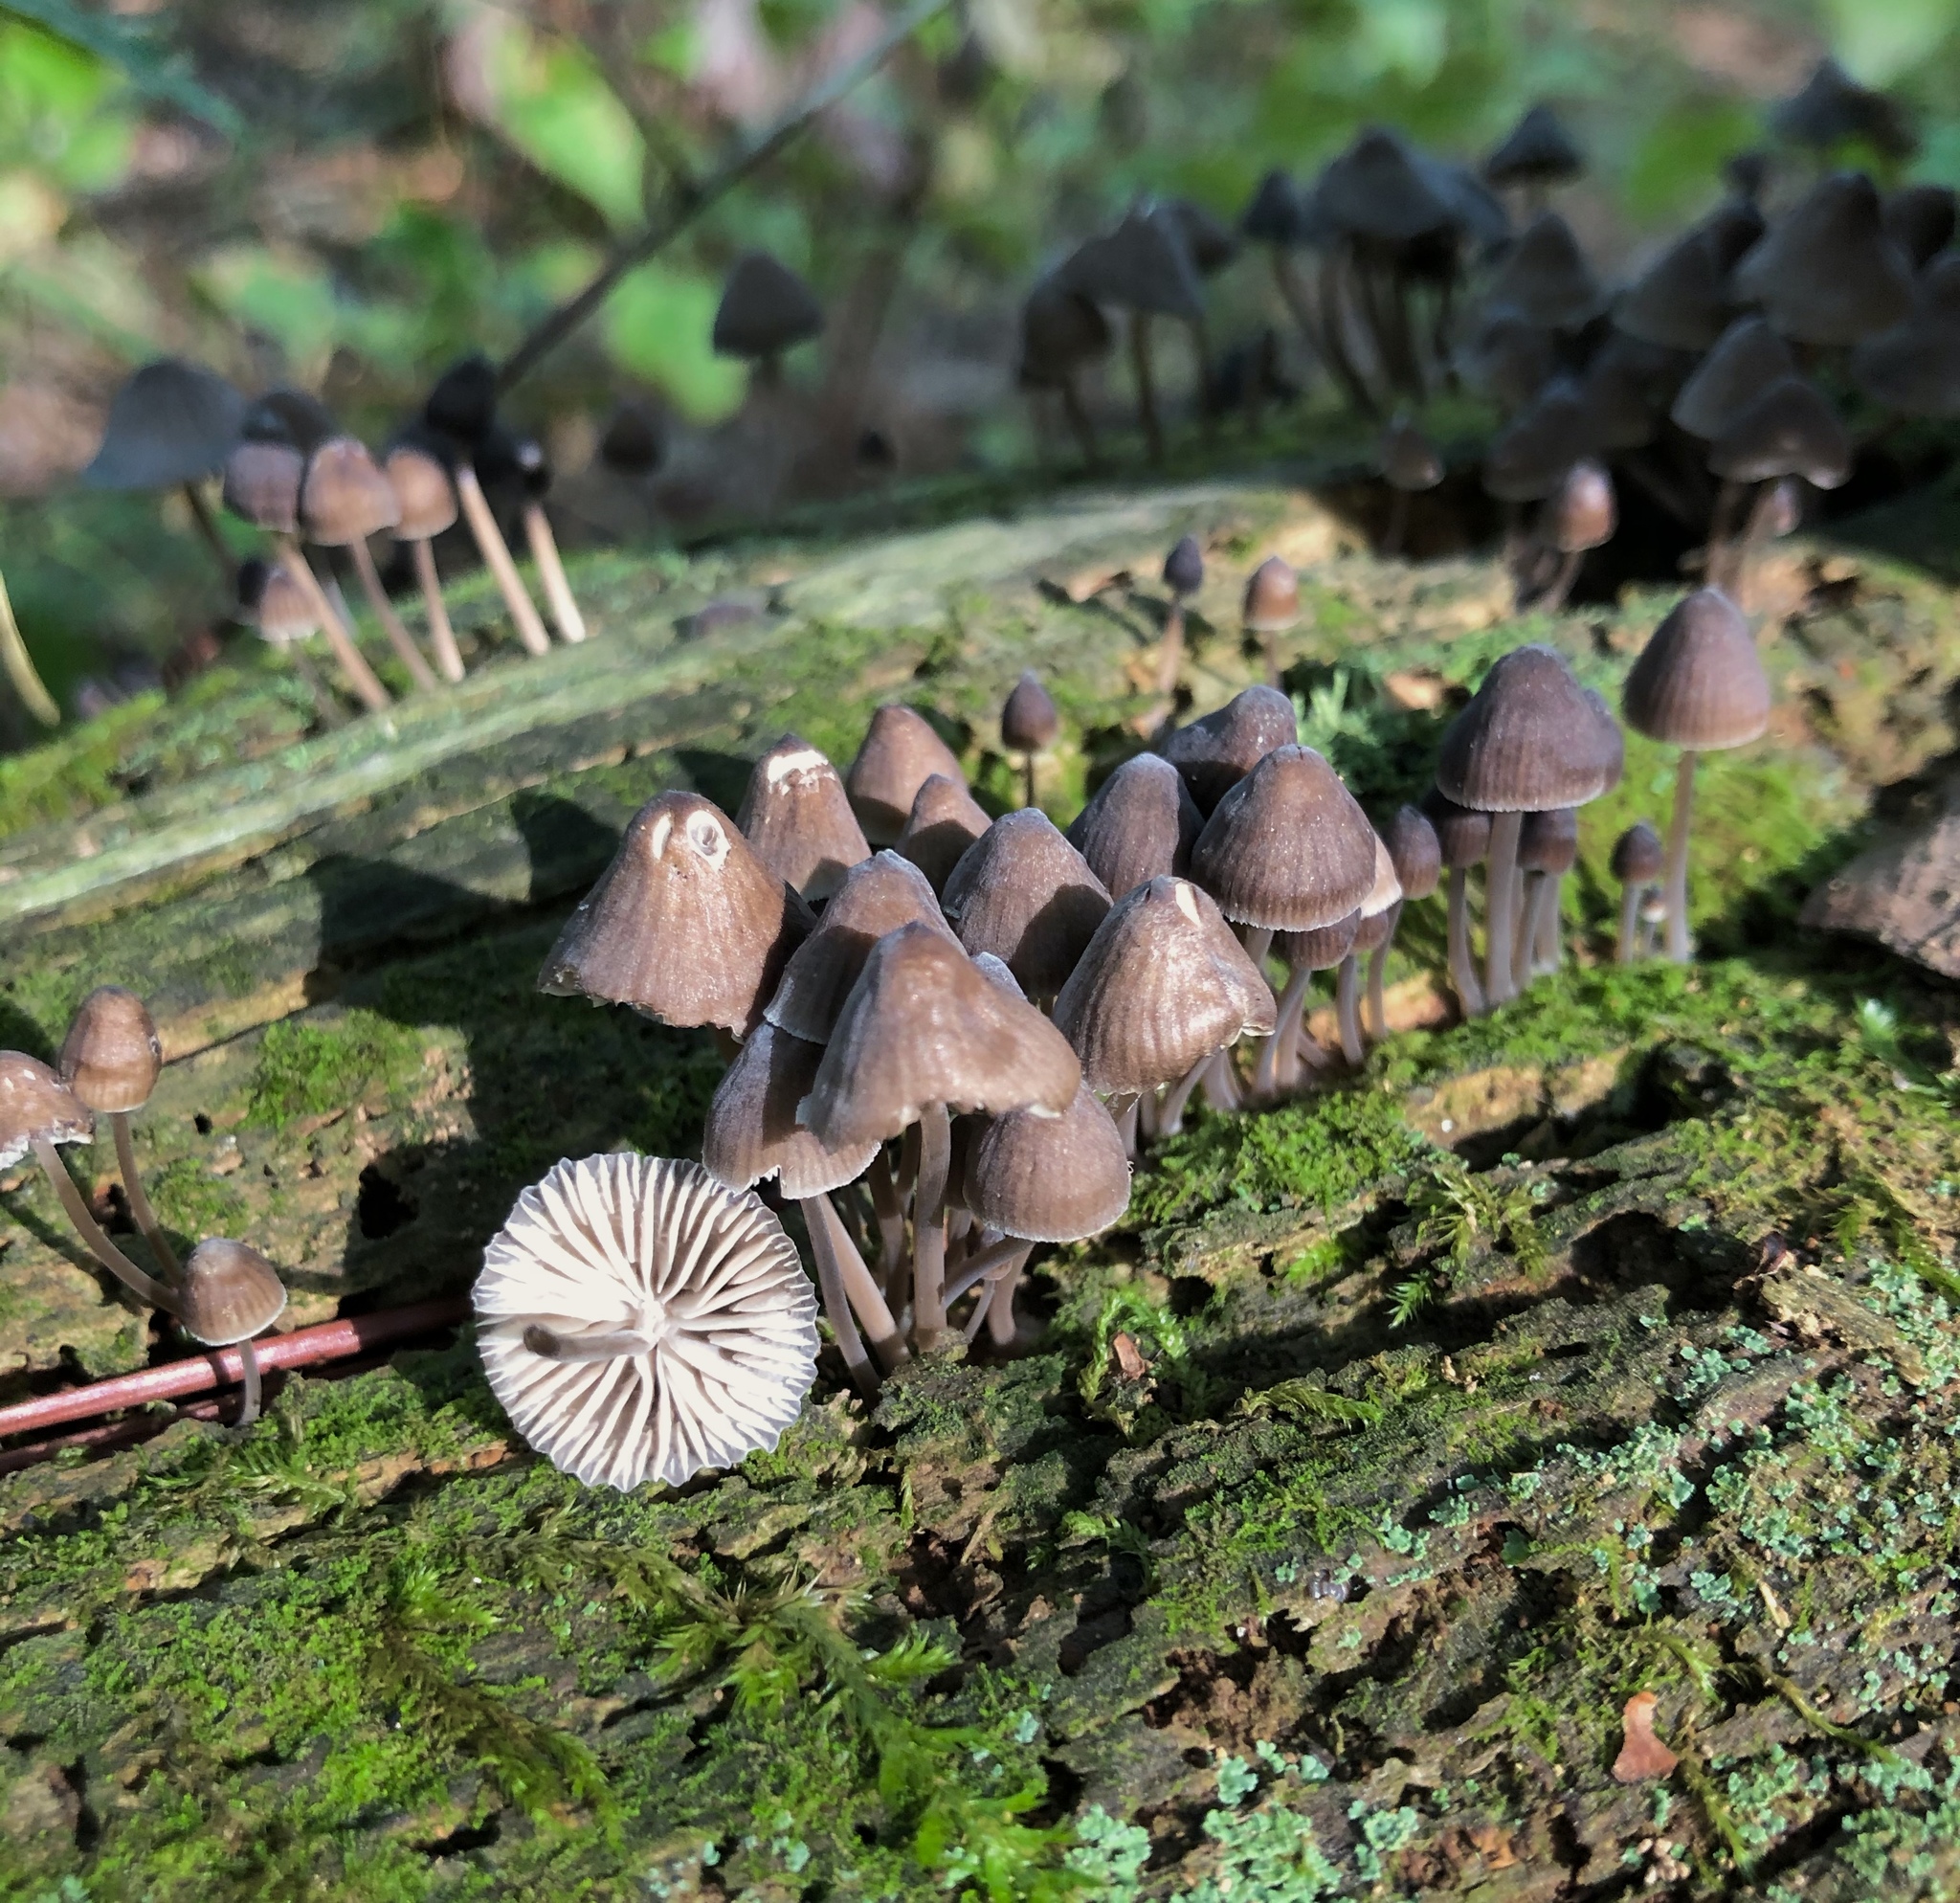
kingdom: Fungi
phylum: Basidiomycota
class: Agaricomycetes
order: Agaricales
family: Mycenaceae
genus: Mycena
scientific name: Mycena alcalina
